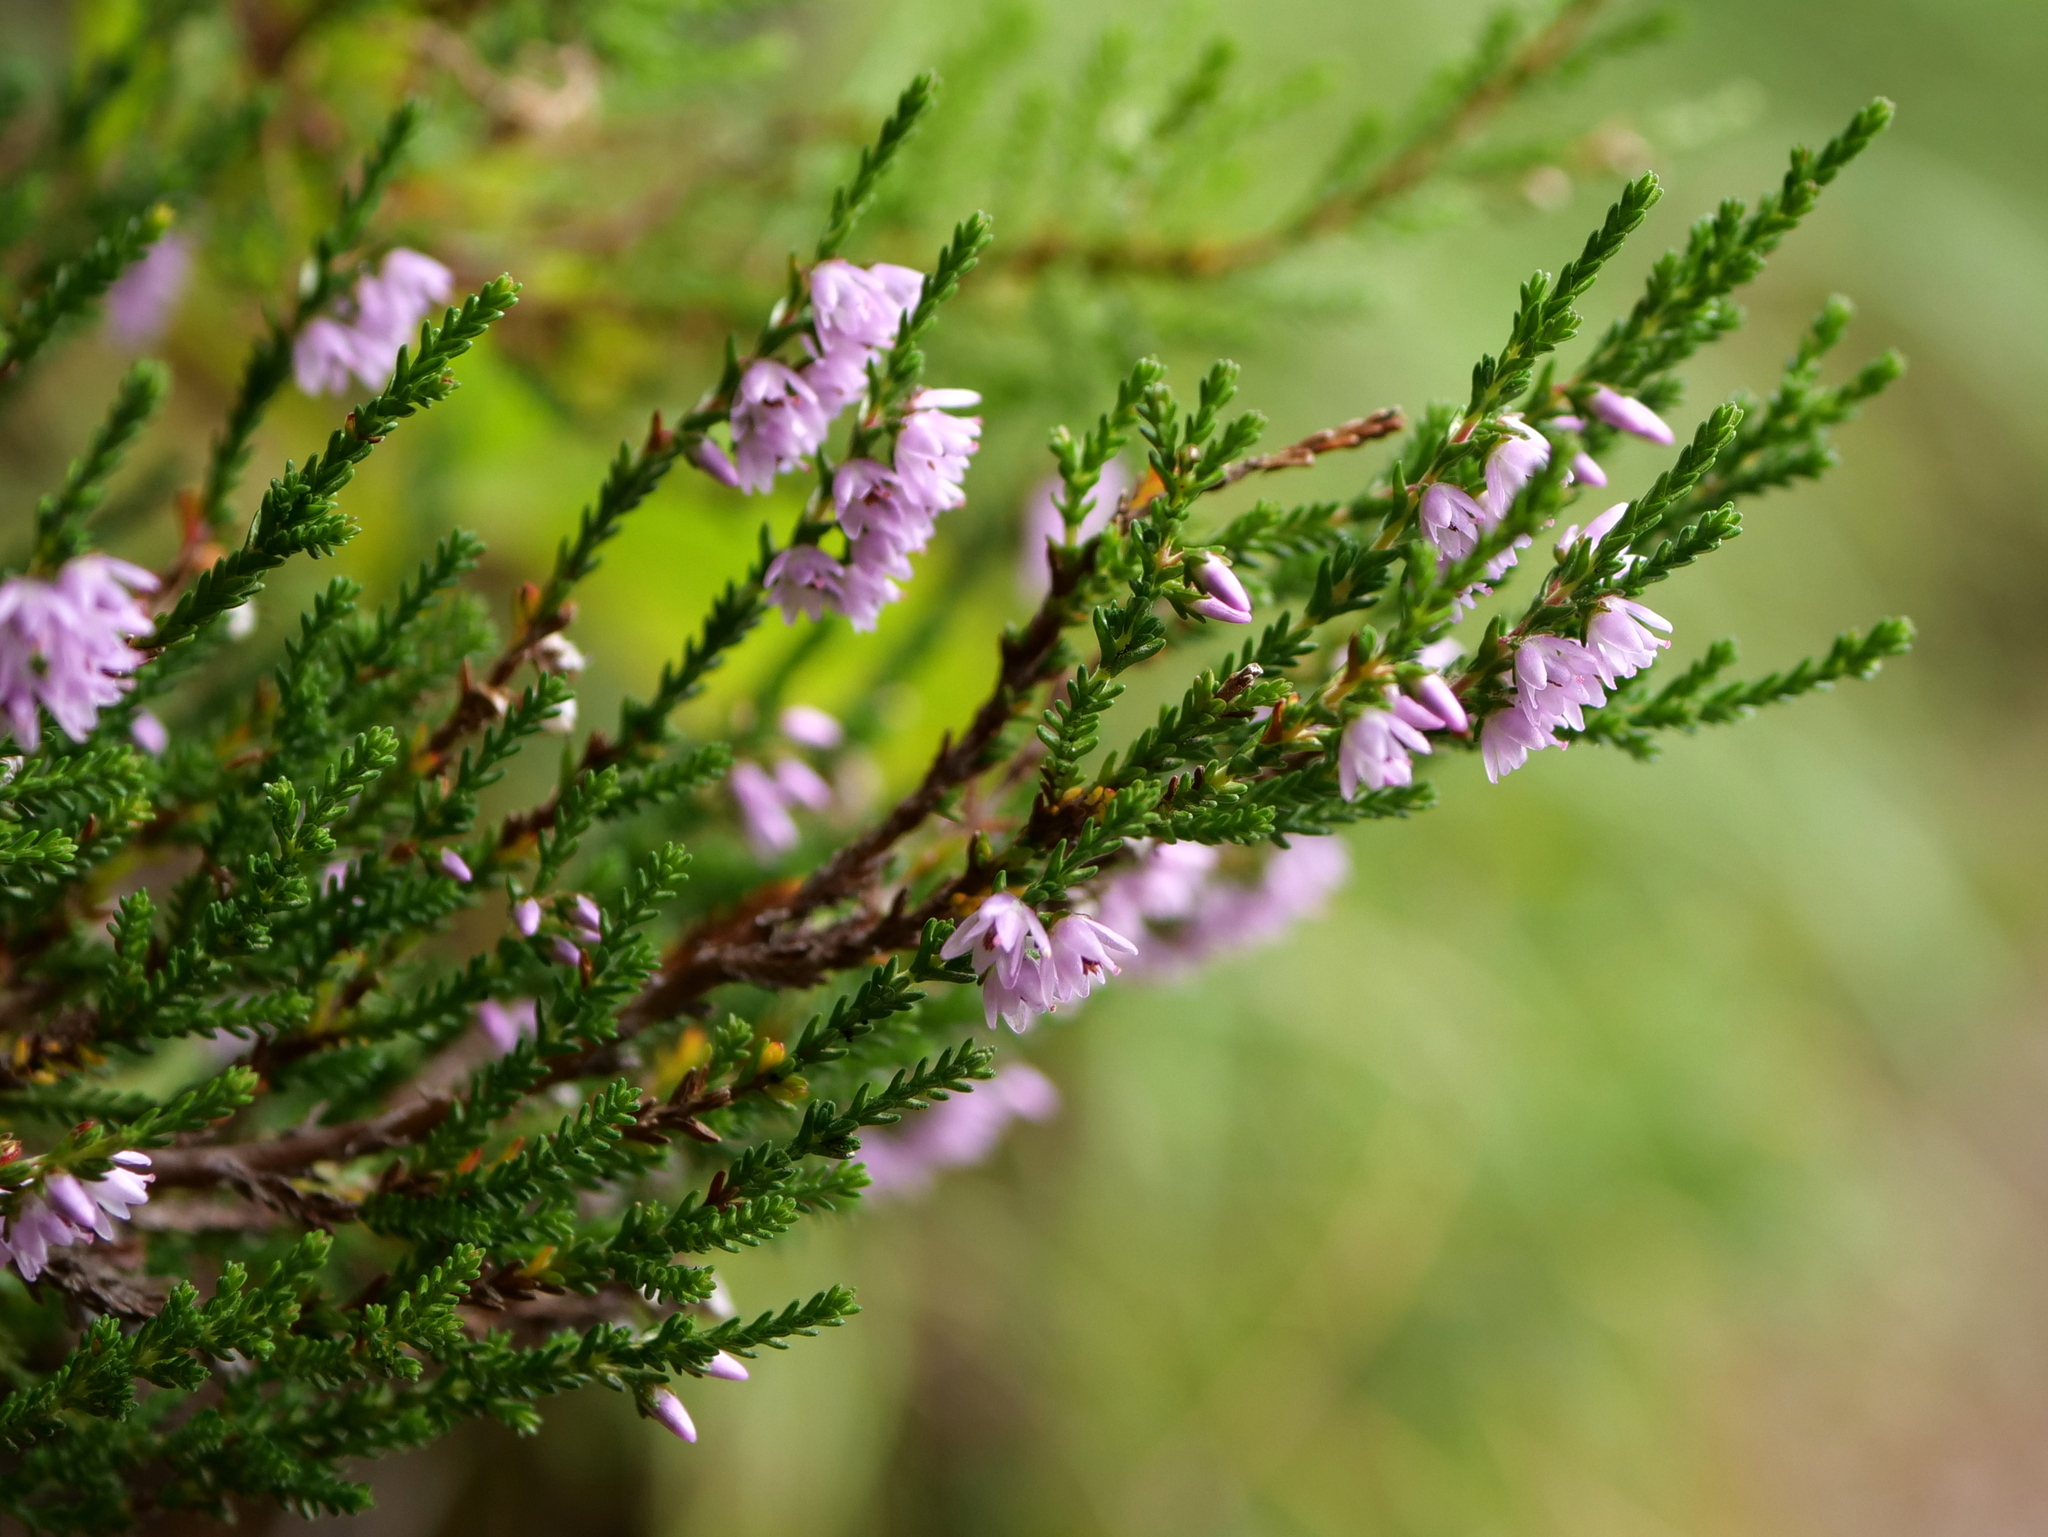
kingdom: Plantae
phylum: Tracheophyta
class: Magnoliopsida
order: Ericales
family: Ericaceae
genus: Calluna
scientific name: Calluna vulgaris
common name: Heather
